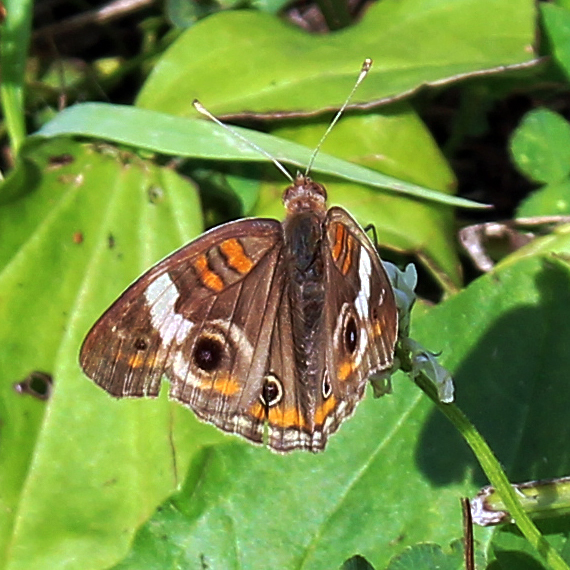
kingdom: Animalia
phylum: Arthropoda
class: Insecta
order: Lepidoptera
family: Nymphalidae
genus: Junonia
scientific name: Junonia coenia
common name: Common buckeye
